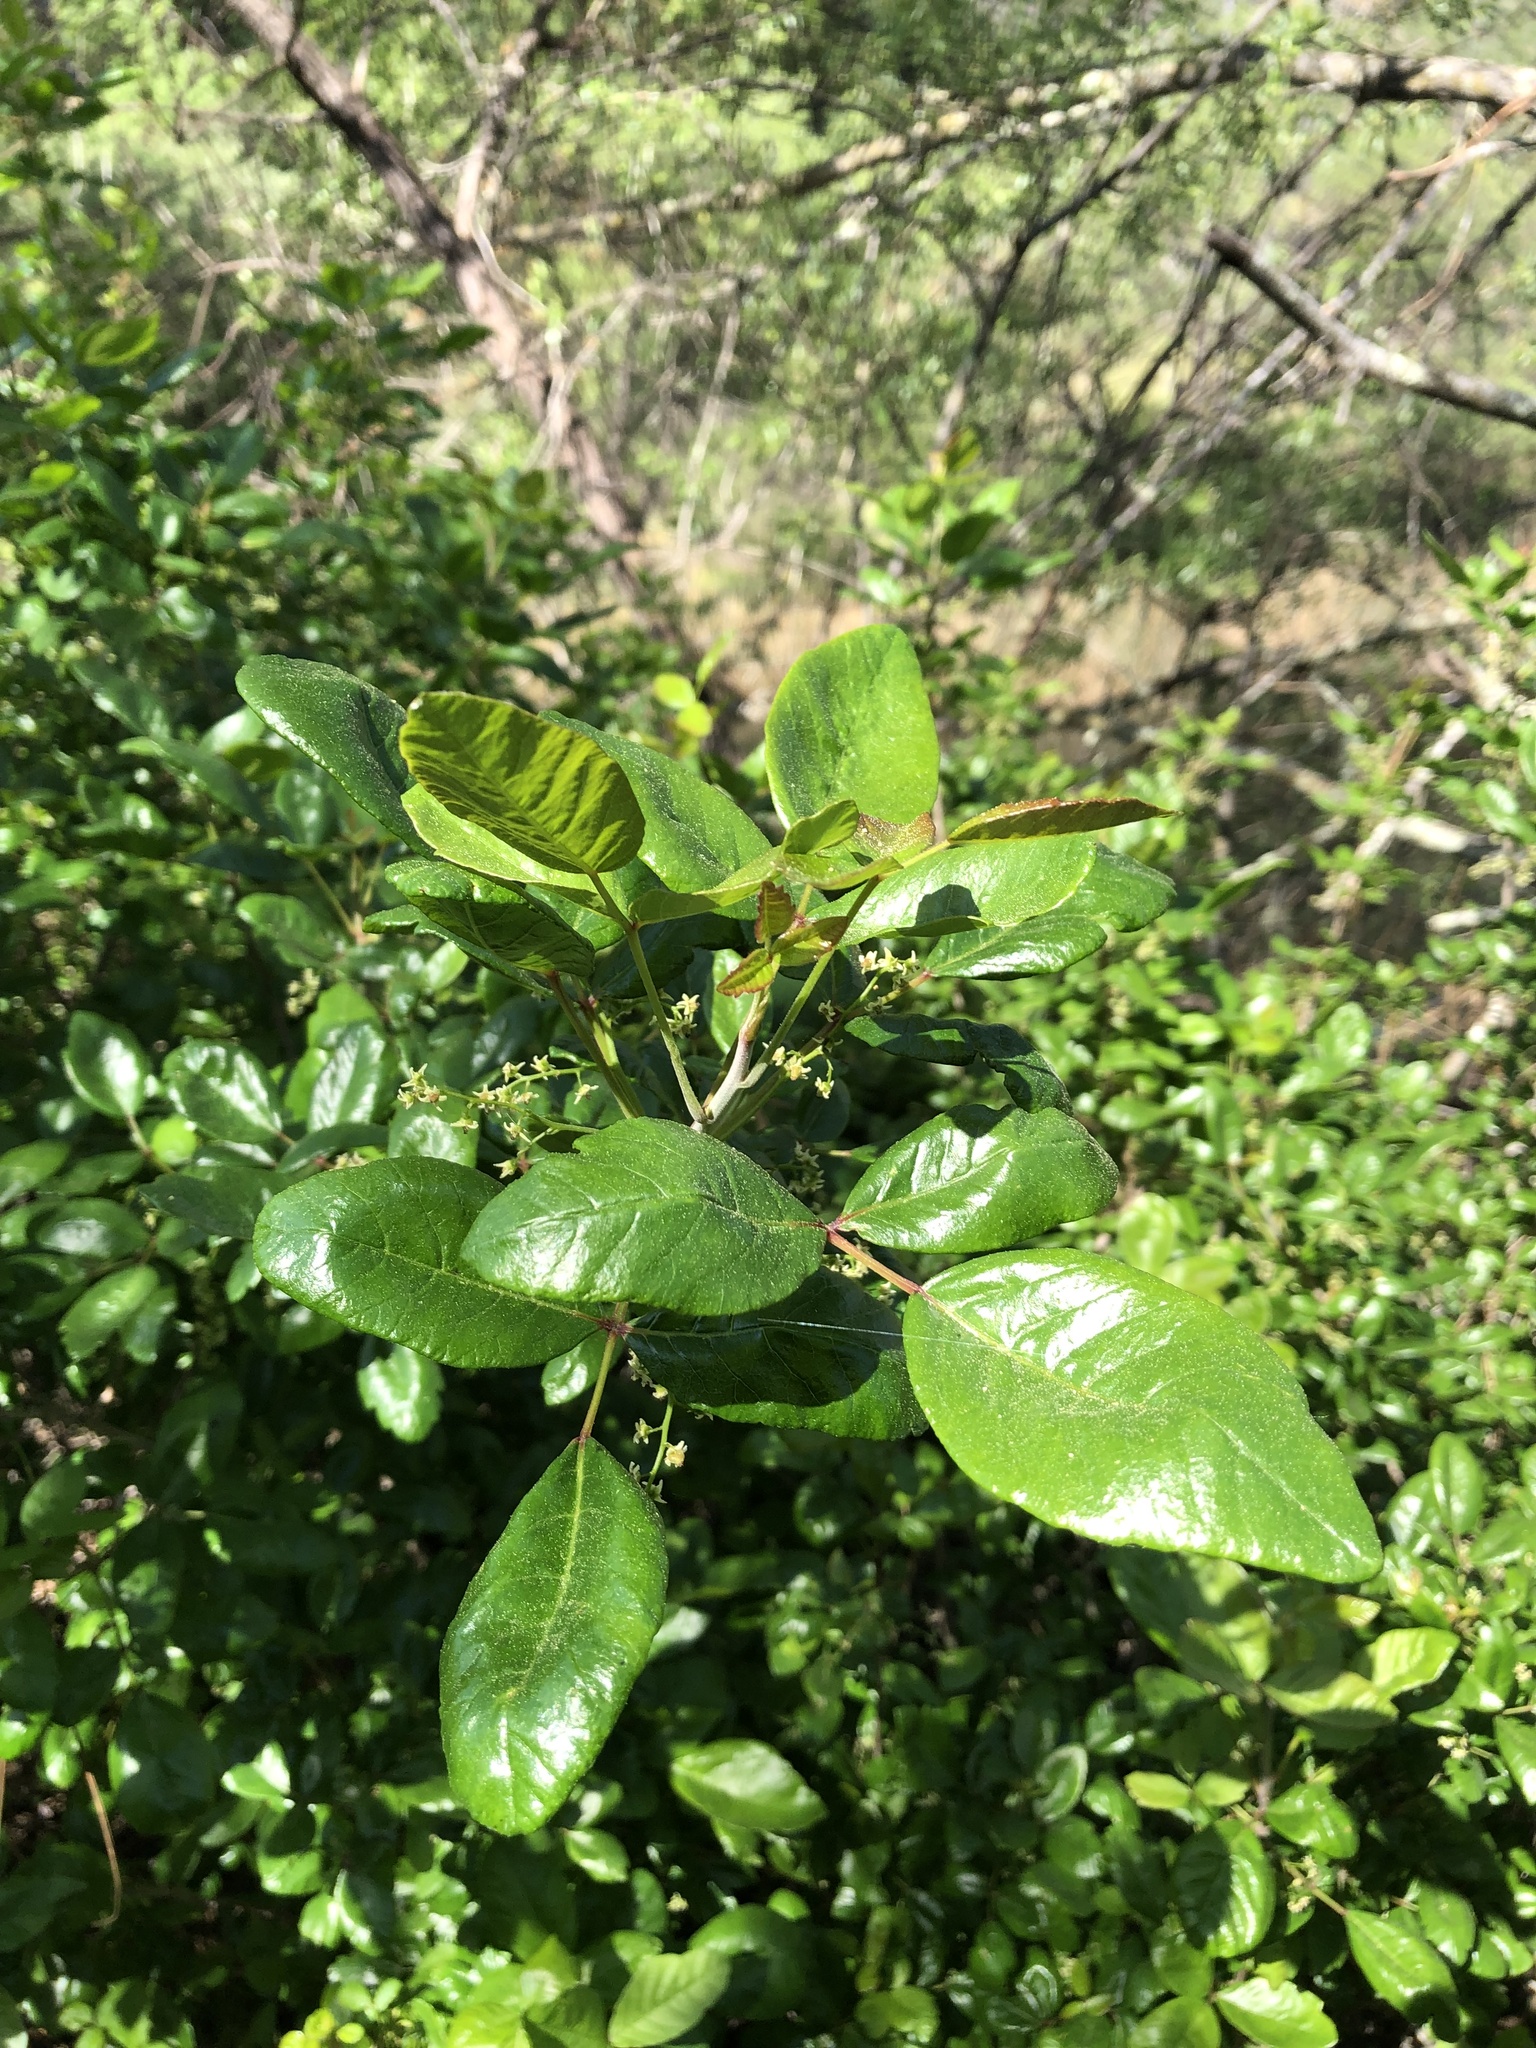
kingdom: Plantae
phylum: Tracheophyta
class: Magnoliopsida
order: Sapindales
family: Anacardiaceae
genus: Toxicodendron
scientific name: Toxicodendron diversilobum
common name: Pacific poison-oak
